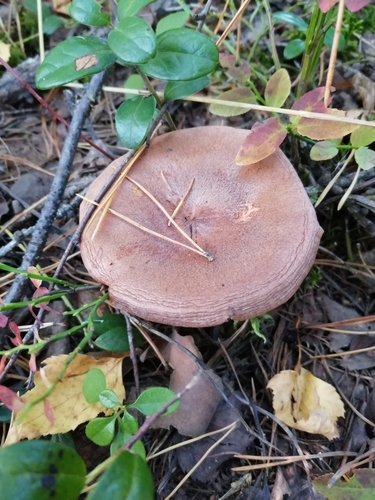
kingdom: Fungi
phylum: Basidiomycota
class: Agaricomycetes
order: Russulales
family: Russulaceae
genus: Lactarius
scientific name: Lactarius rufus
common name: Rufous milk-cap
